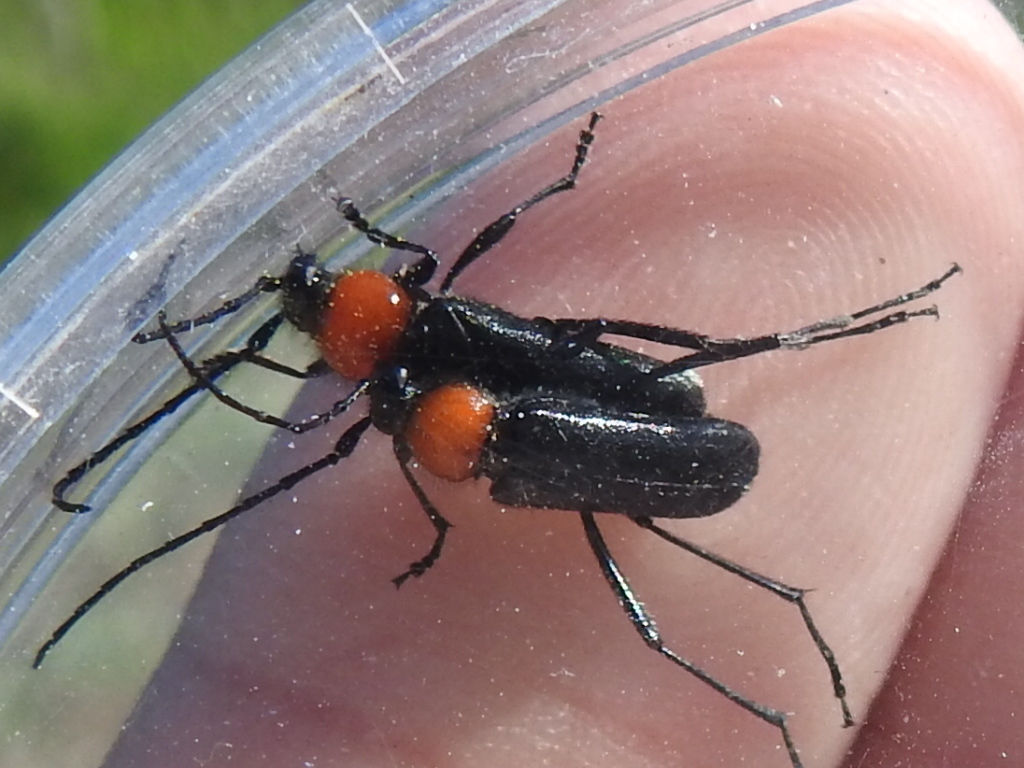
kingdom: Animalia
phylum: Arthropoda
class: Insecta
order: Coleoptera
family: Cerambycidae
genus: Batyle
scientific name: Batyle ignicollis
